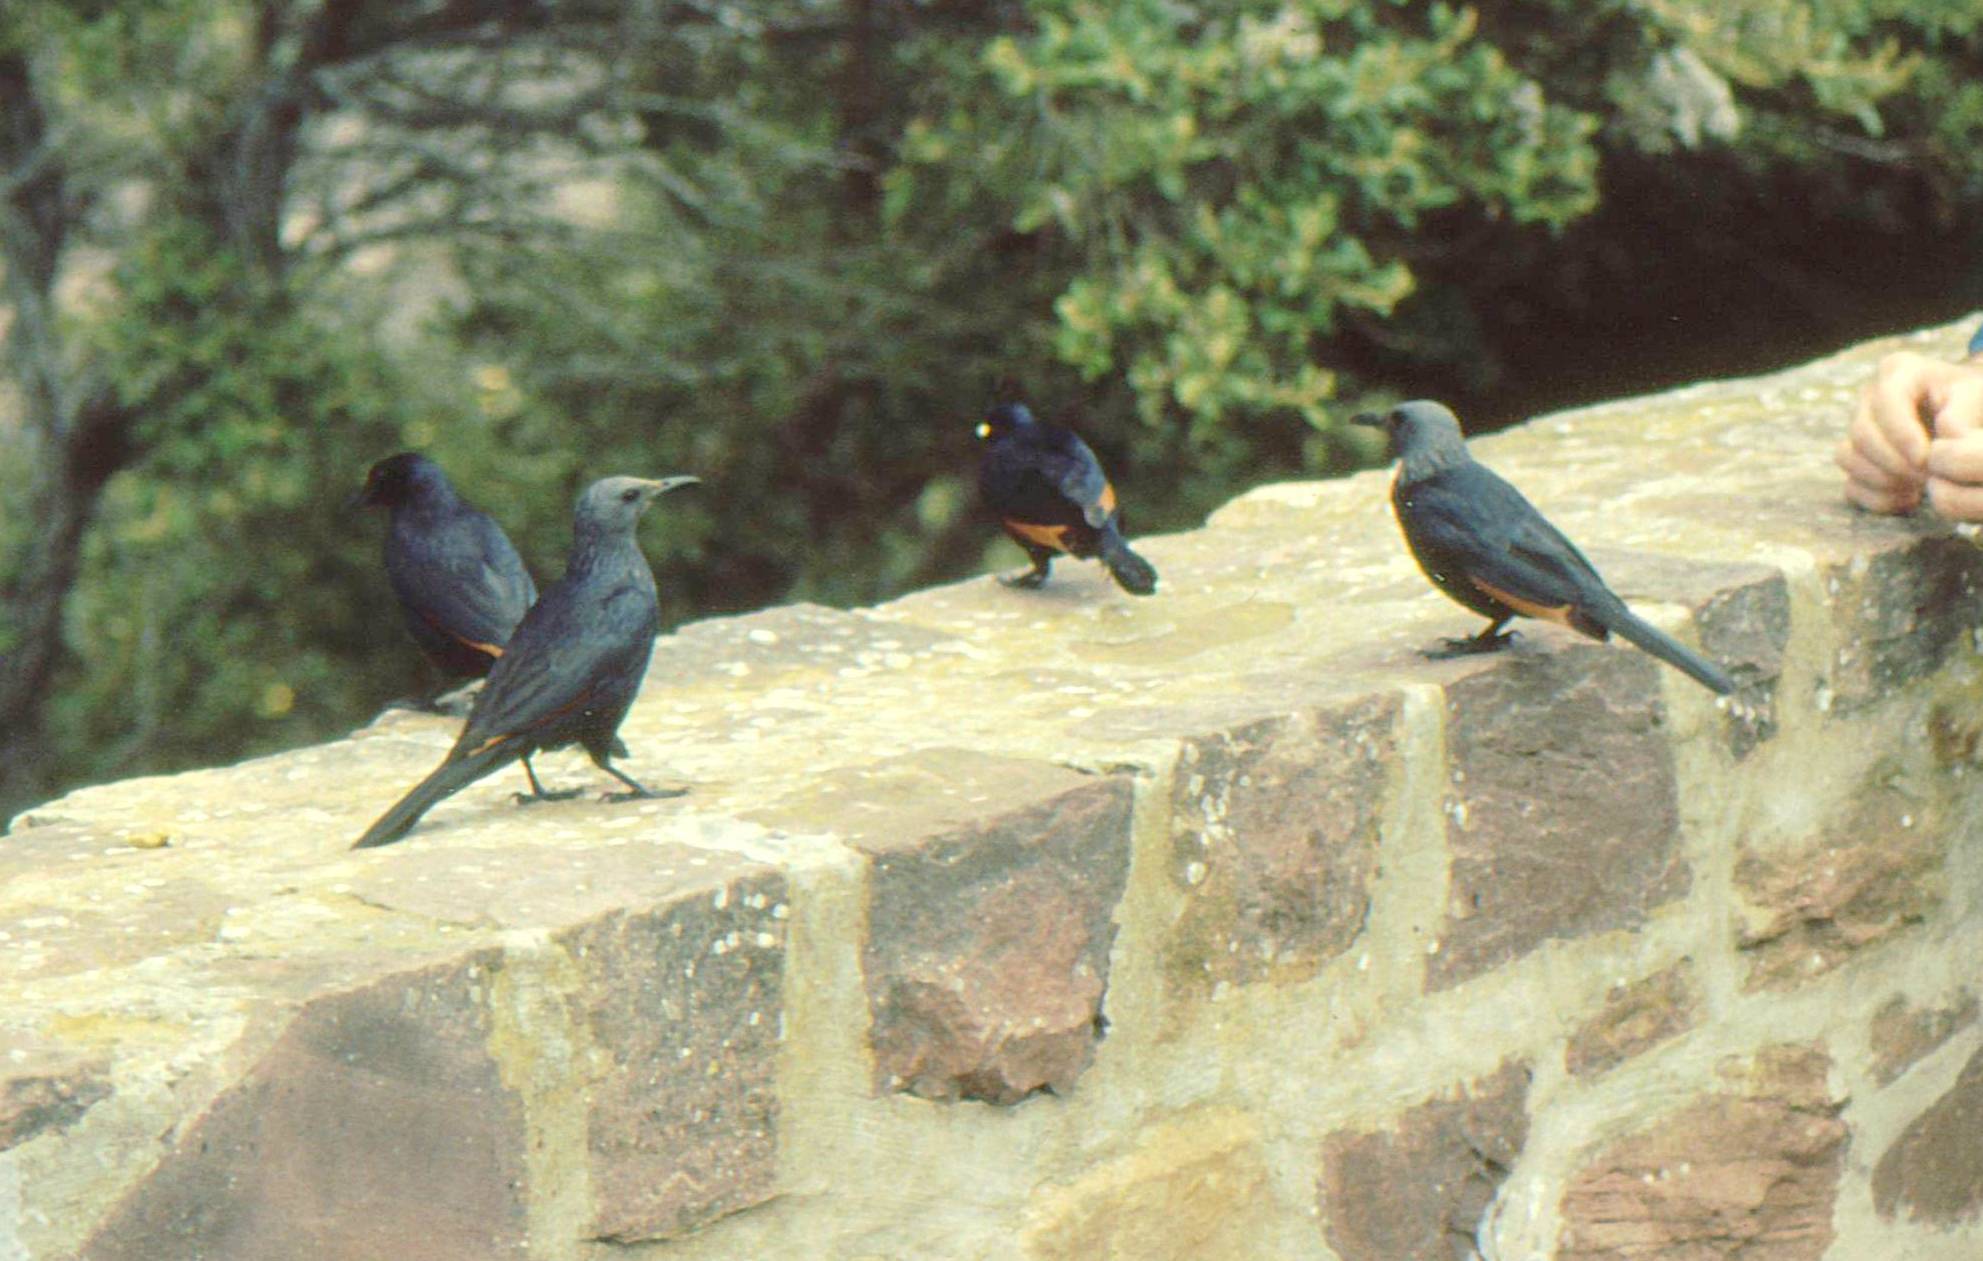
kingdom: Animalia
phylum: Chordata
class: Aves
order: Passeriformes
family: Sturnidae
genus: Onychognathus
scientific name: Onychognathus morio
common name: Red-winged starling
